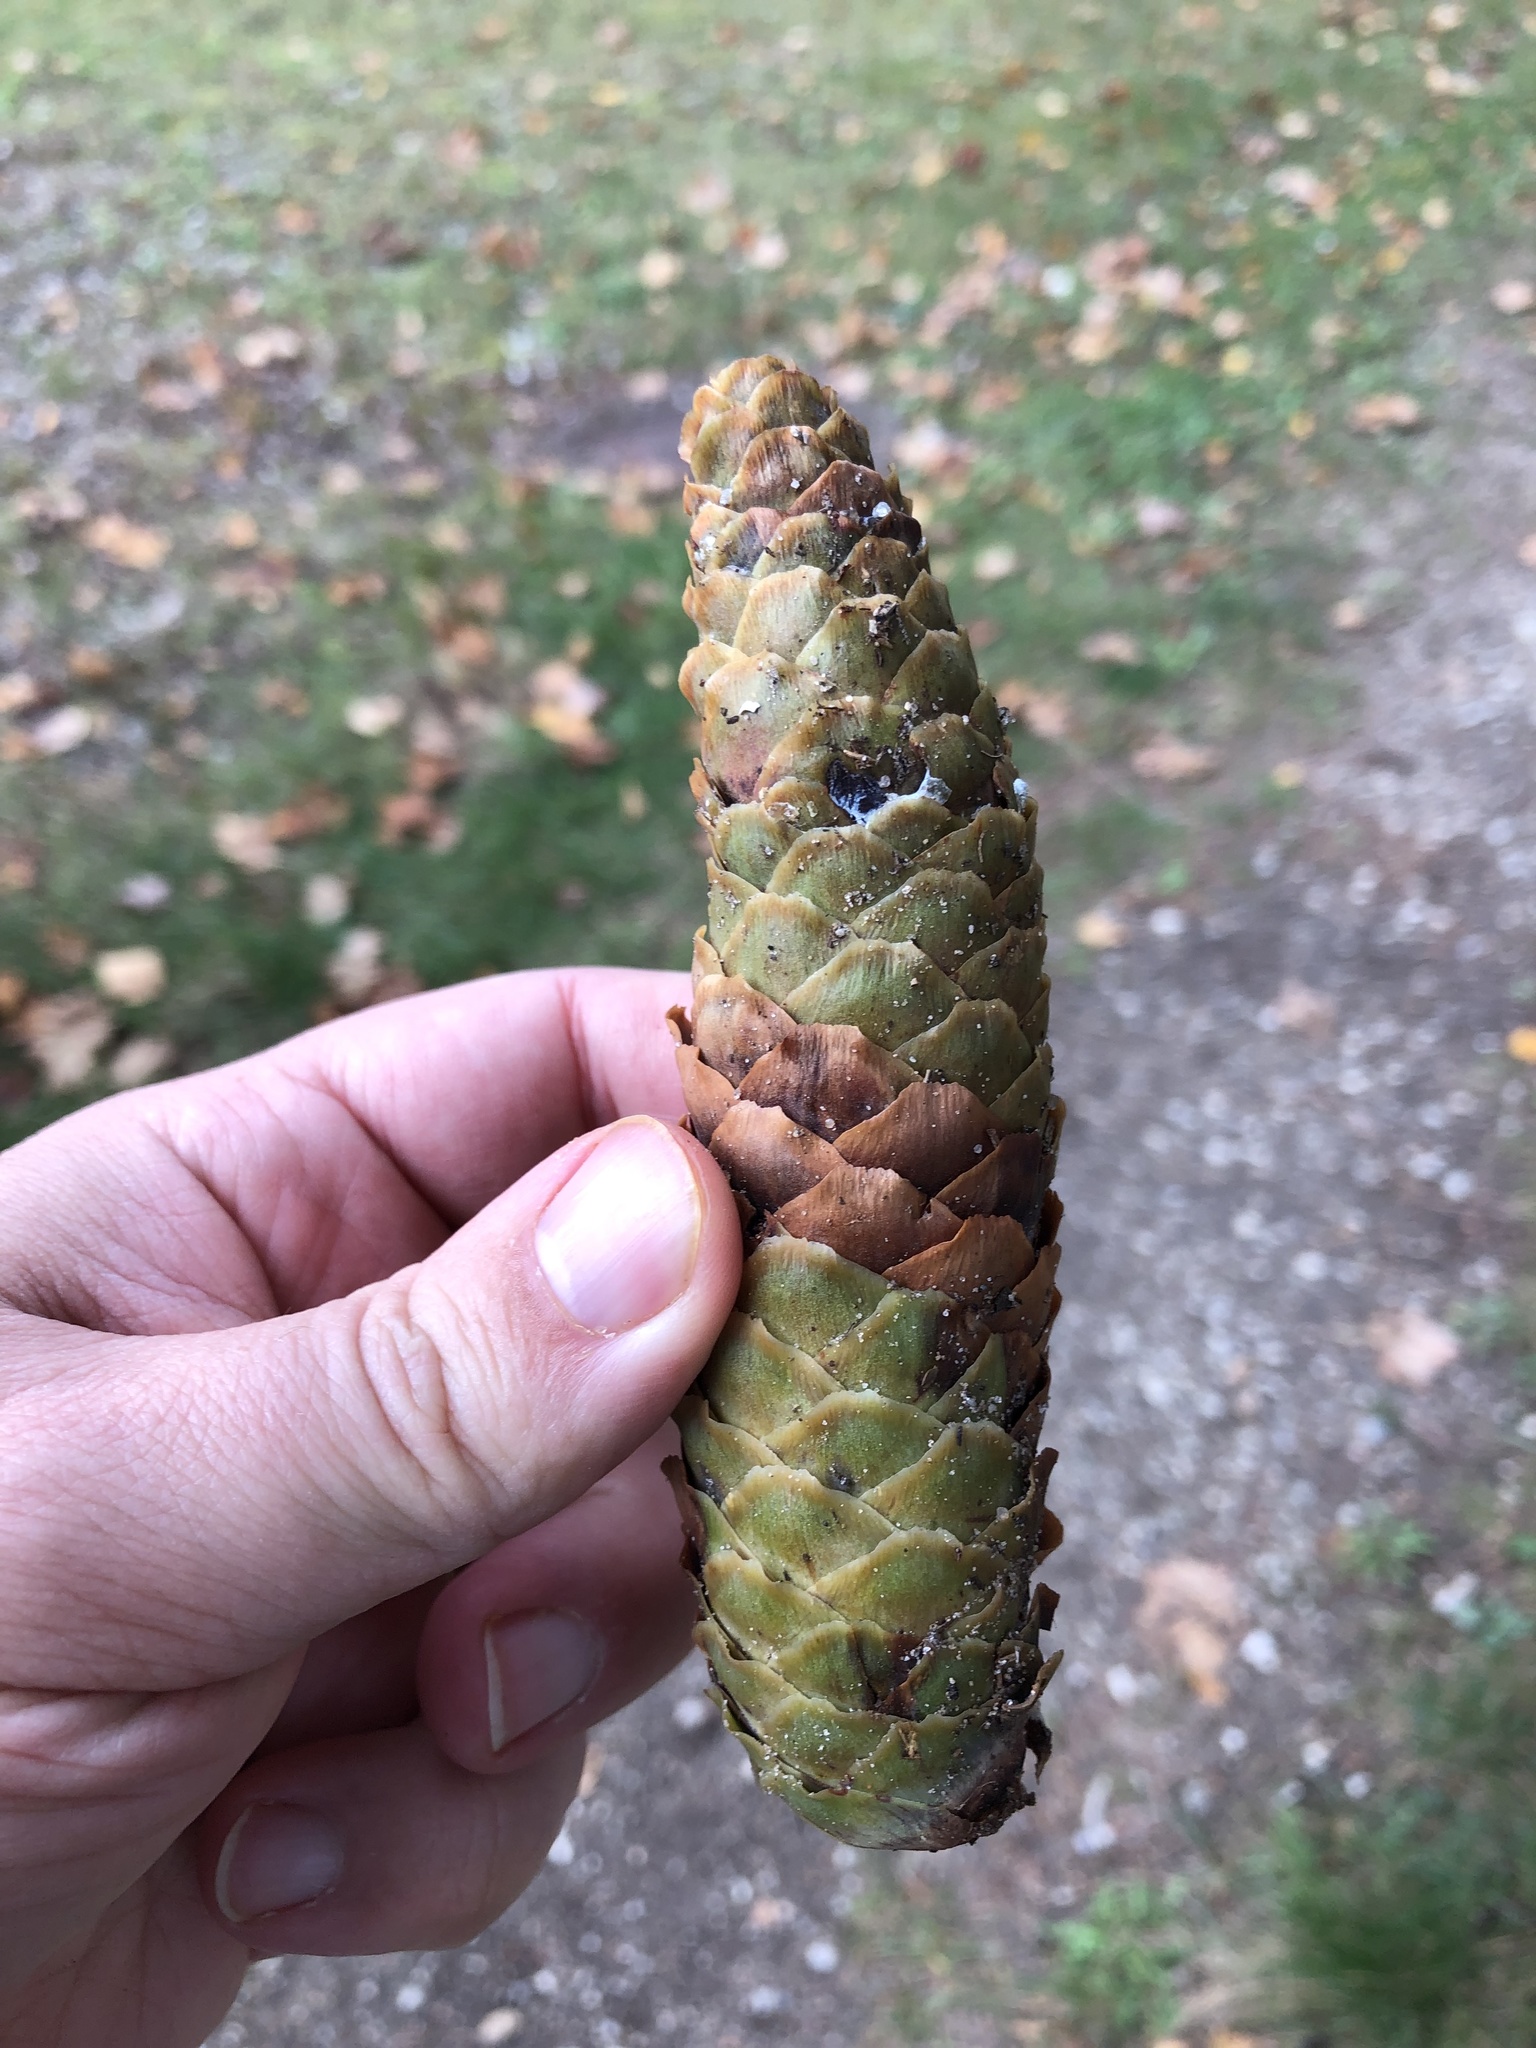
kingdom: Plantae
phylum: Tracheophyta
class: Pinopsida
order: Pinales
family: Pinaceae
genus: Picea
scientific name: Picea abies
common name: Norway spruce
